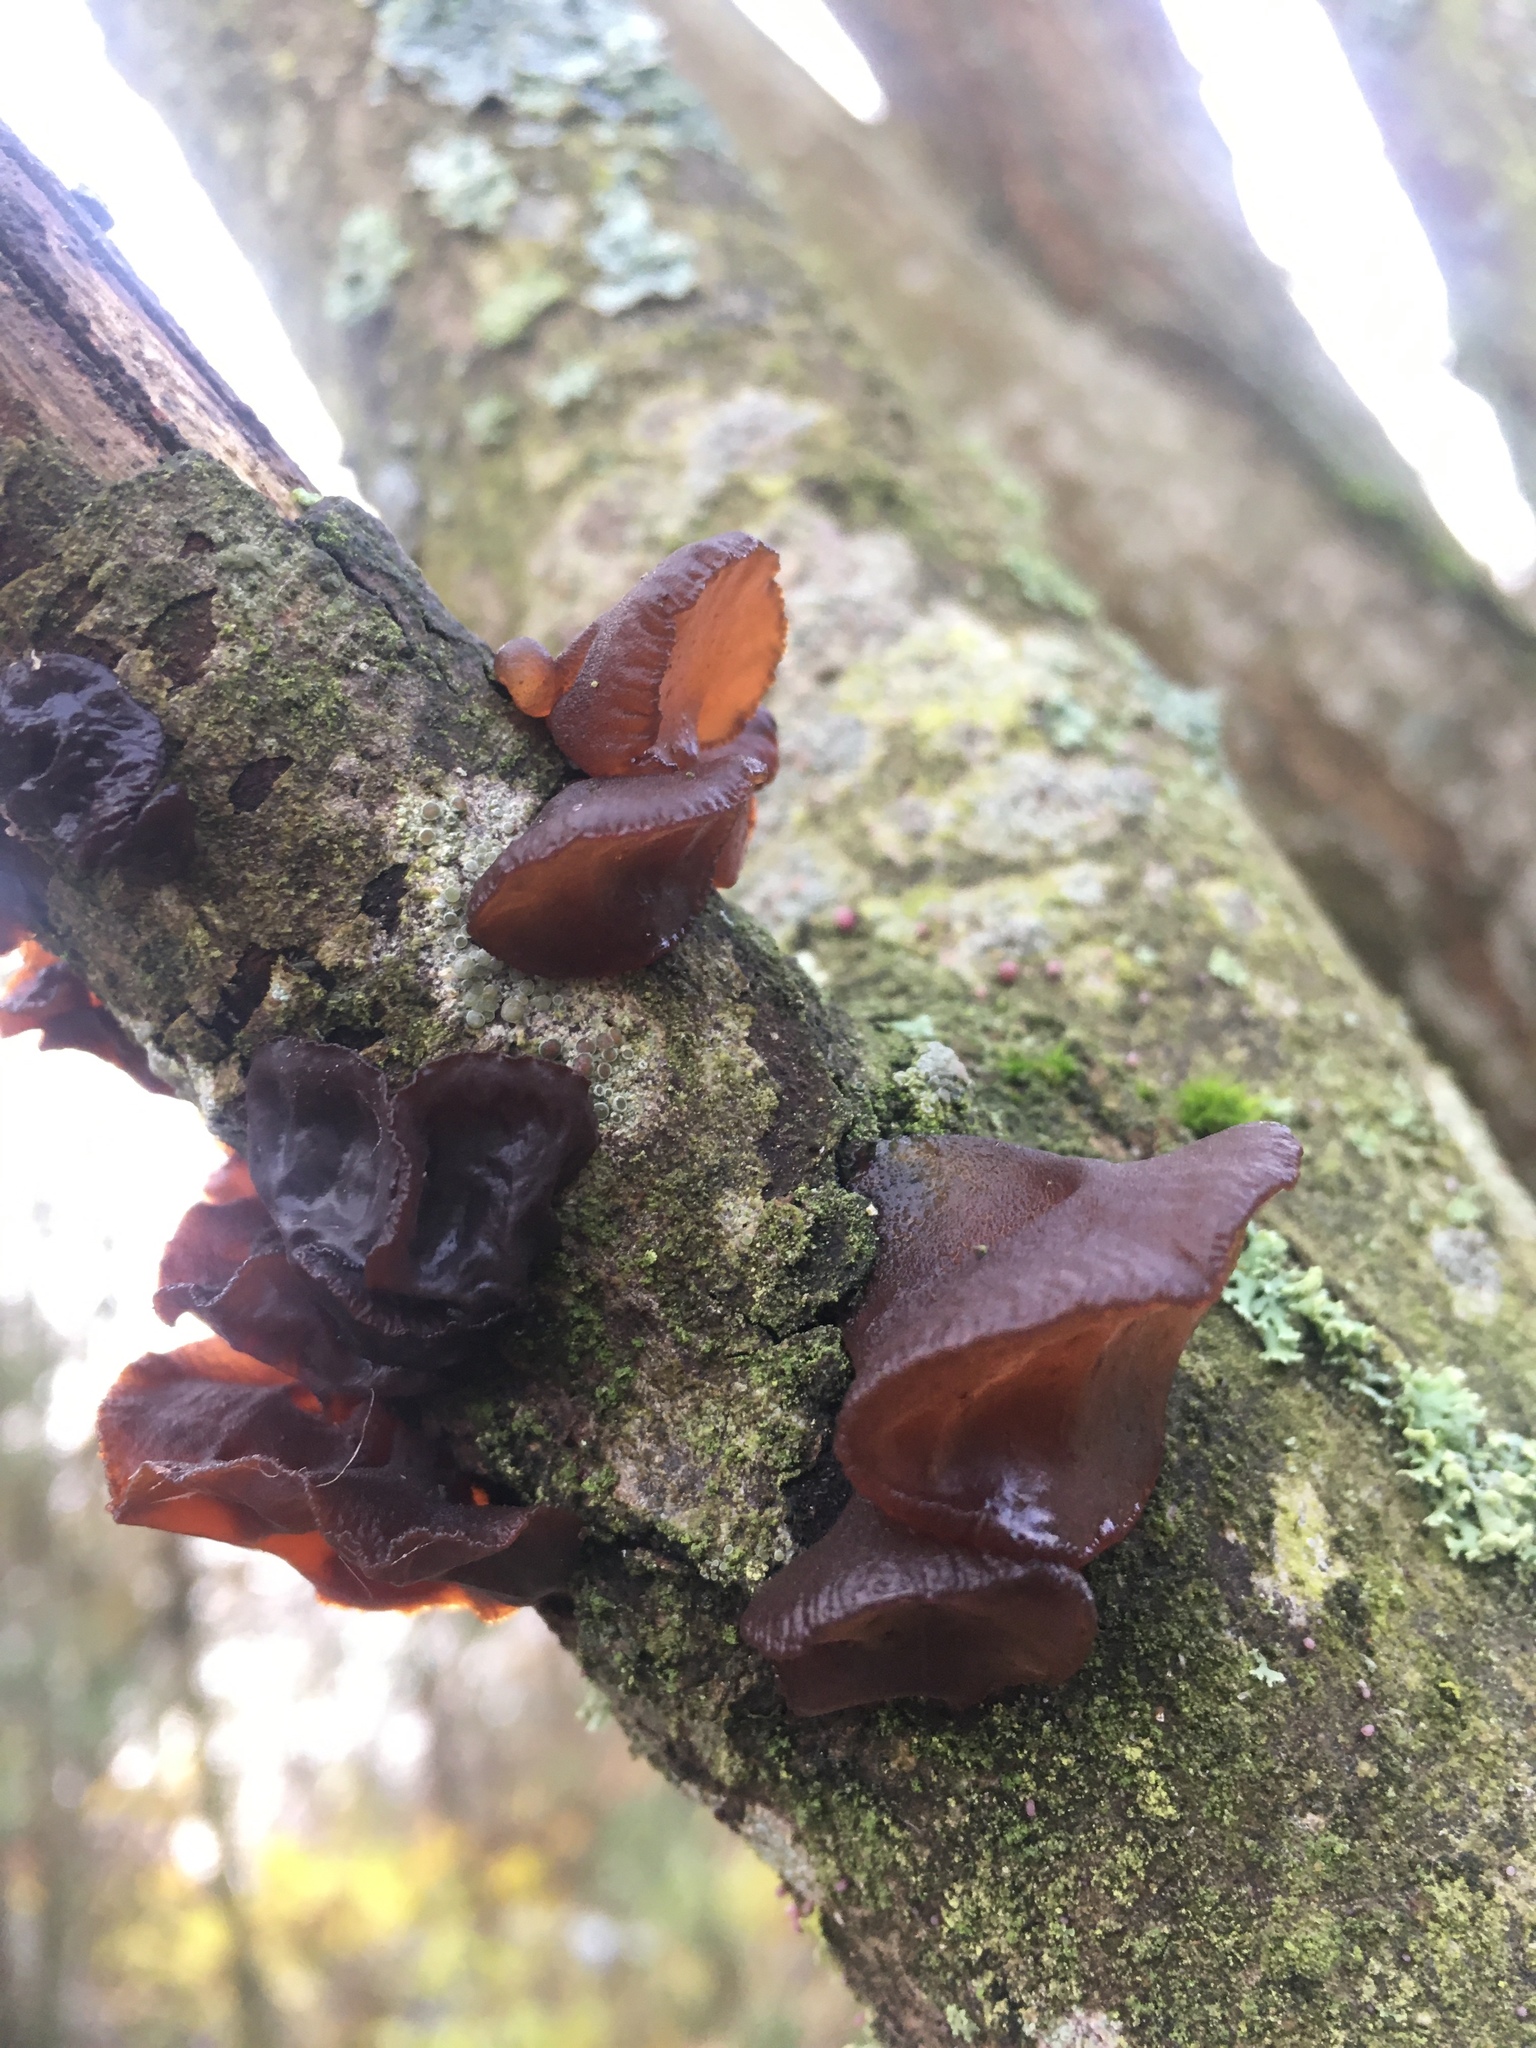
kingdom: Fungi
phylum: Basidiomycota
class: Agaricomycetes
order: Auriculariales
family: Auriculariaceae
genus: Auricularia
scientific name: Auricularia auricula-judae
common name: Jelly ear
